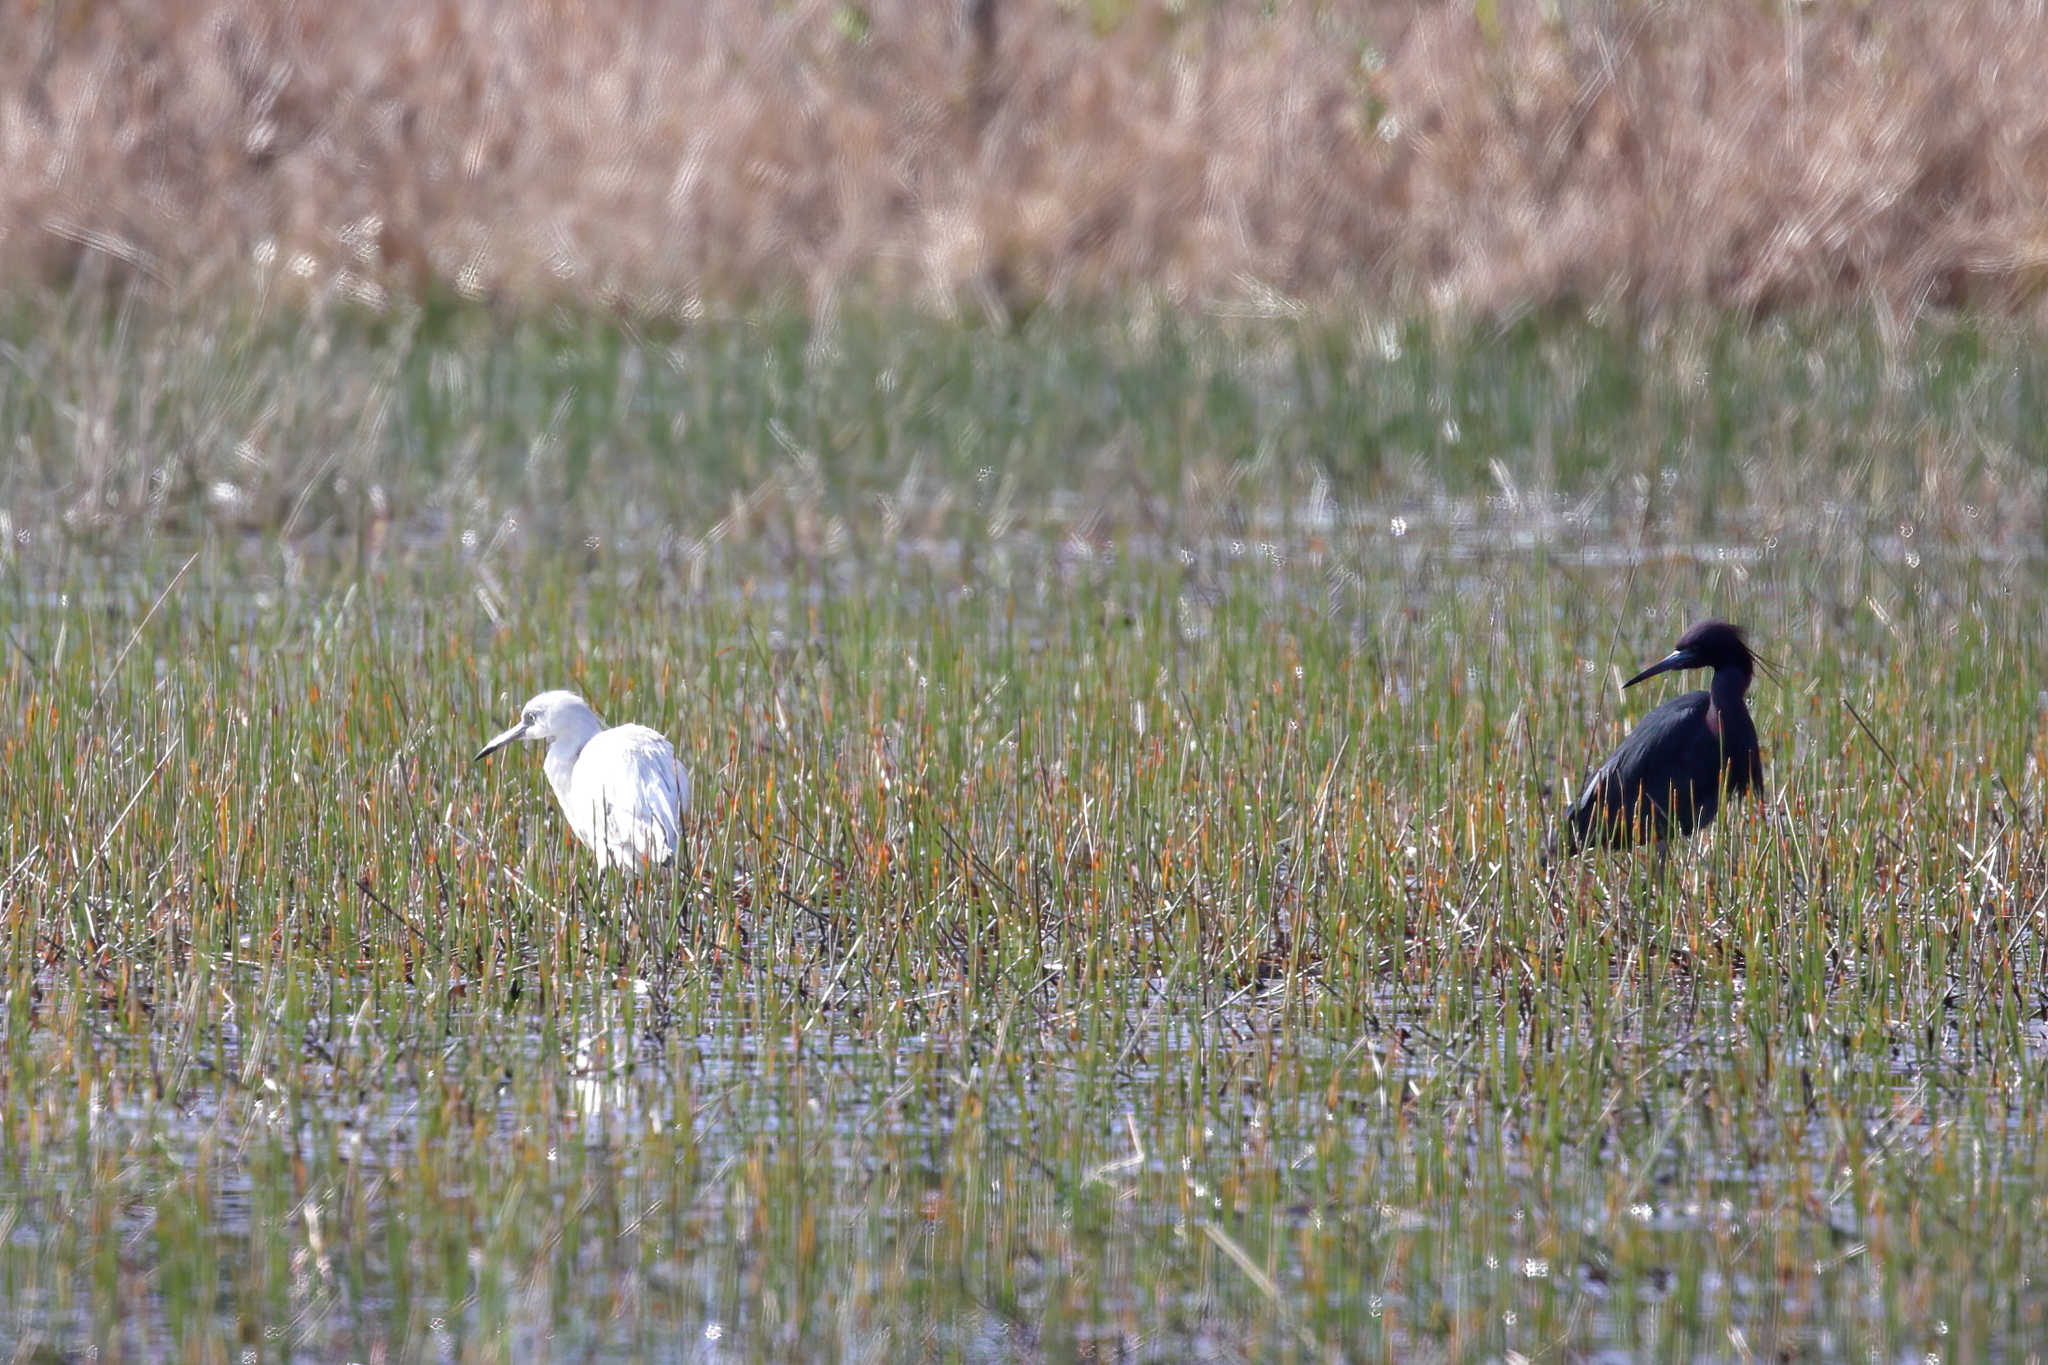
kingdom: Animalia
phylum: Chordata
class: Aves
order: Pelecaniformes
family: Ardeidae
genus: Egretta
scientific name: Egretta caerulea
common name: Little blue heron
